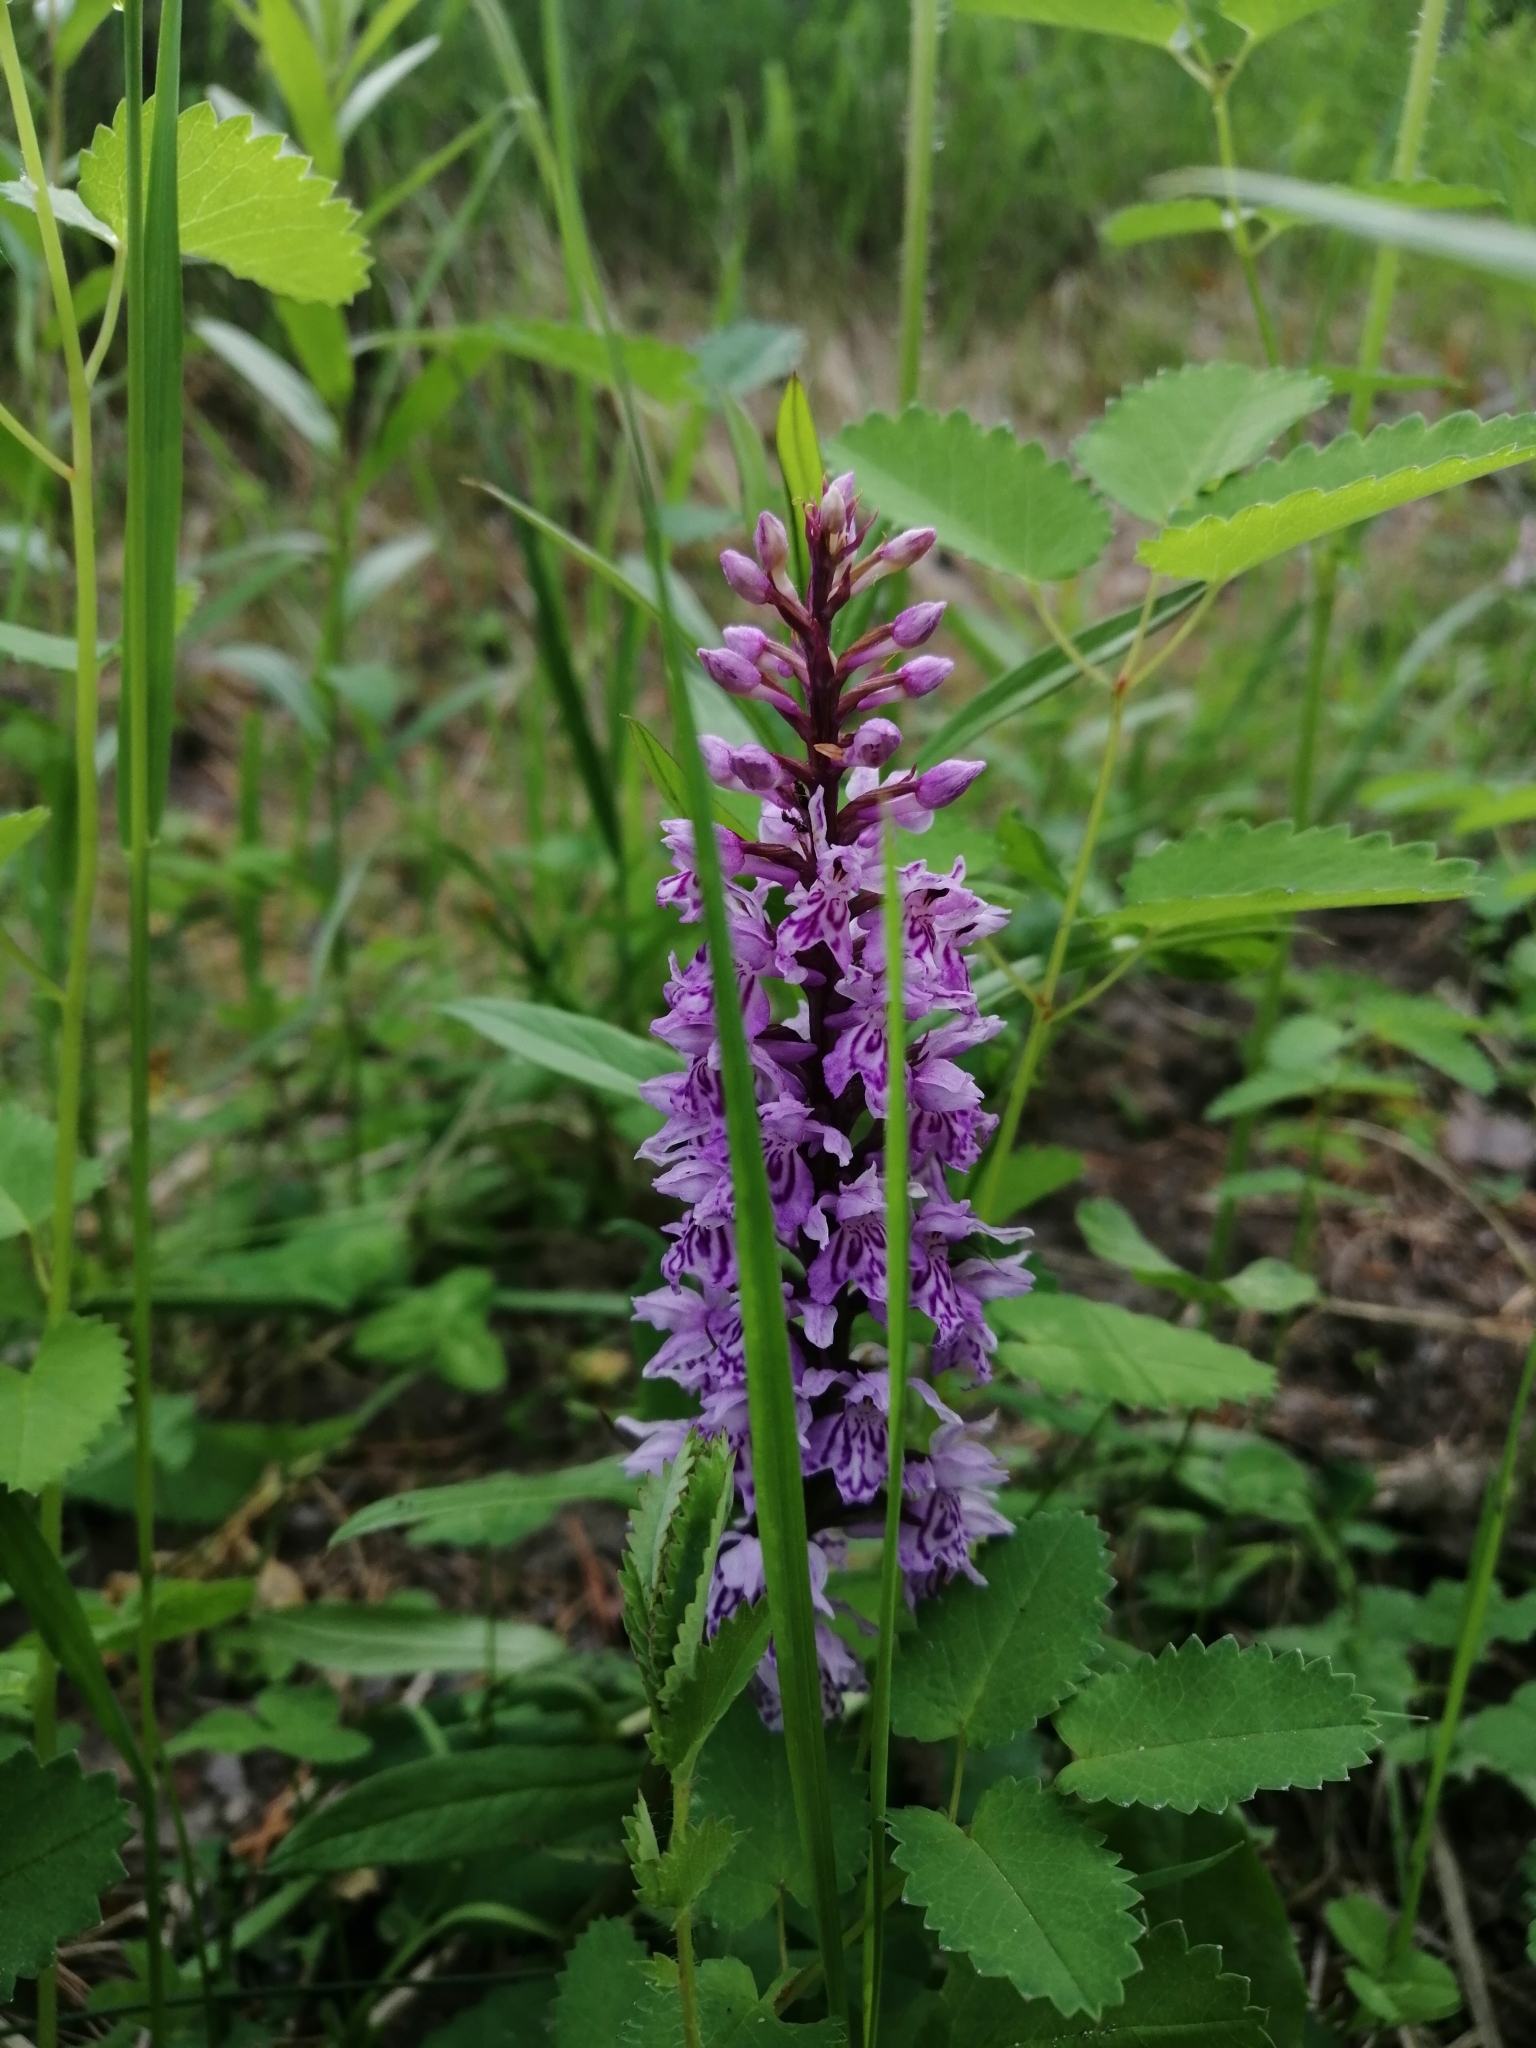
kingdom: Plantae
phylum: Tracheophyta
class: Liliopsida
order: Asparagales
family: Orchidaceae
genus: Dactylorhiza
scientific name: Dactylorhiza maculata
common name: Heath spotted-orchid
